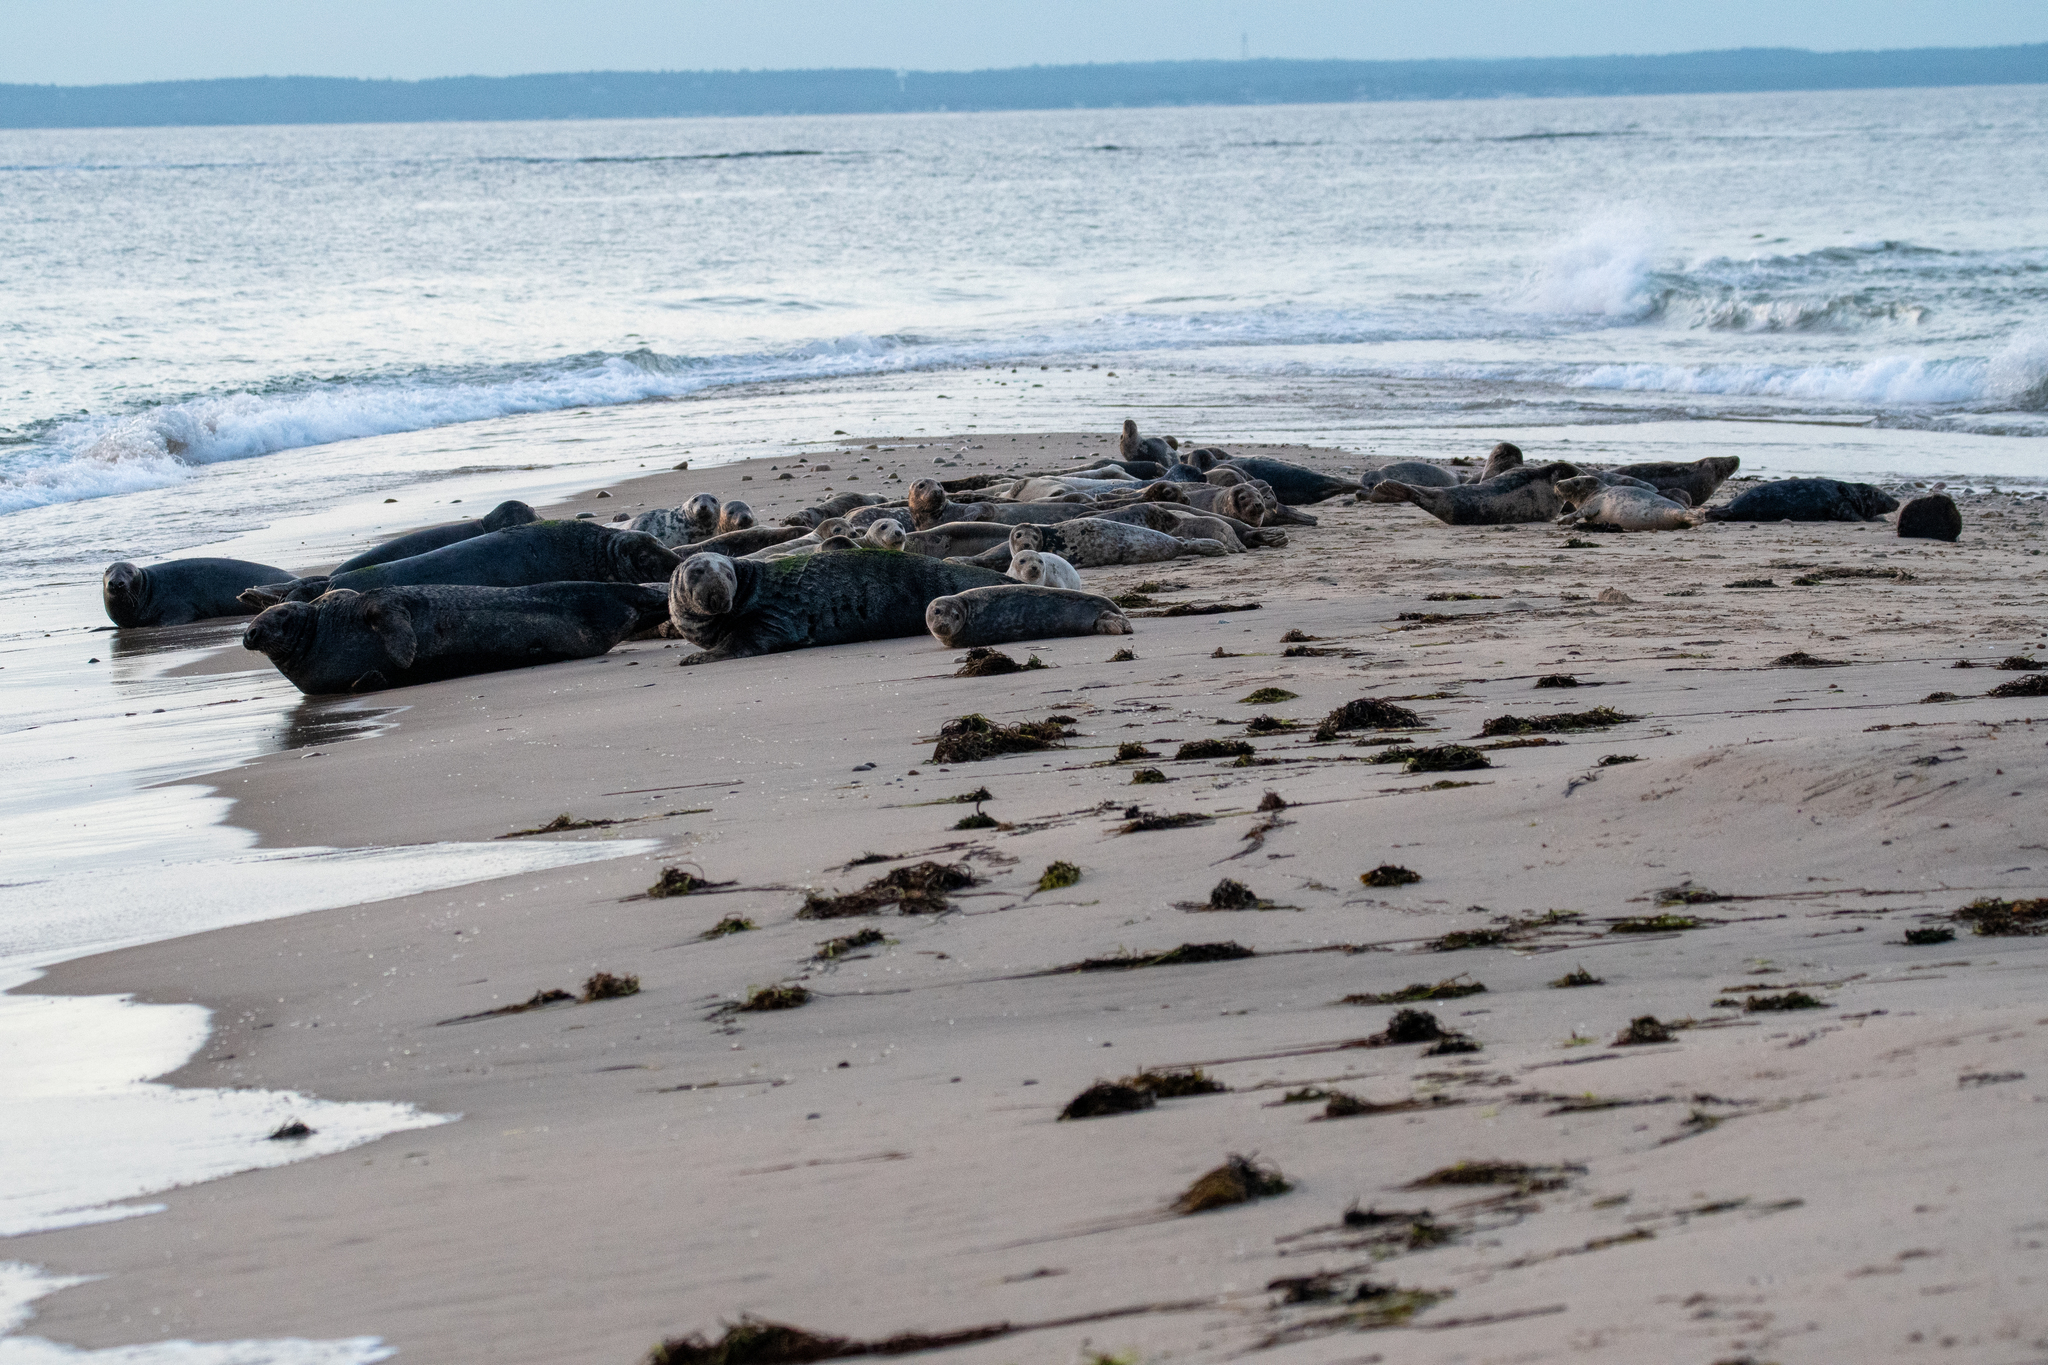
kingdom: Animalia
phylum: Chordata
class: Mammalia
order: Carnivora
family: Phocidae
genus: Halichoerus
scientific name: Halichoerus grypus
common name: Grey seal
